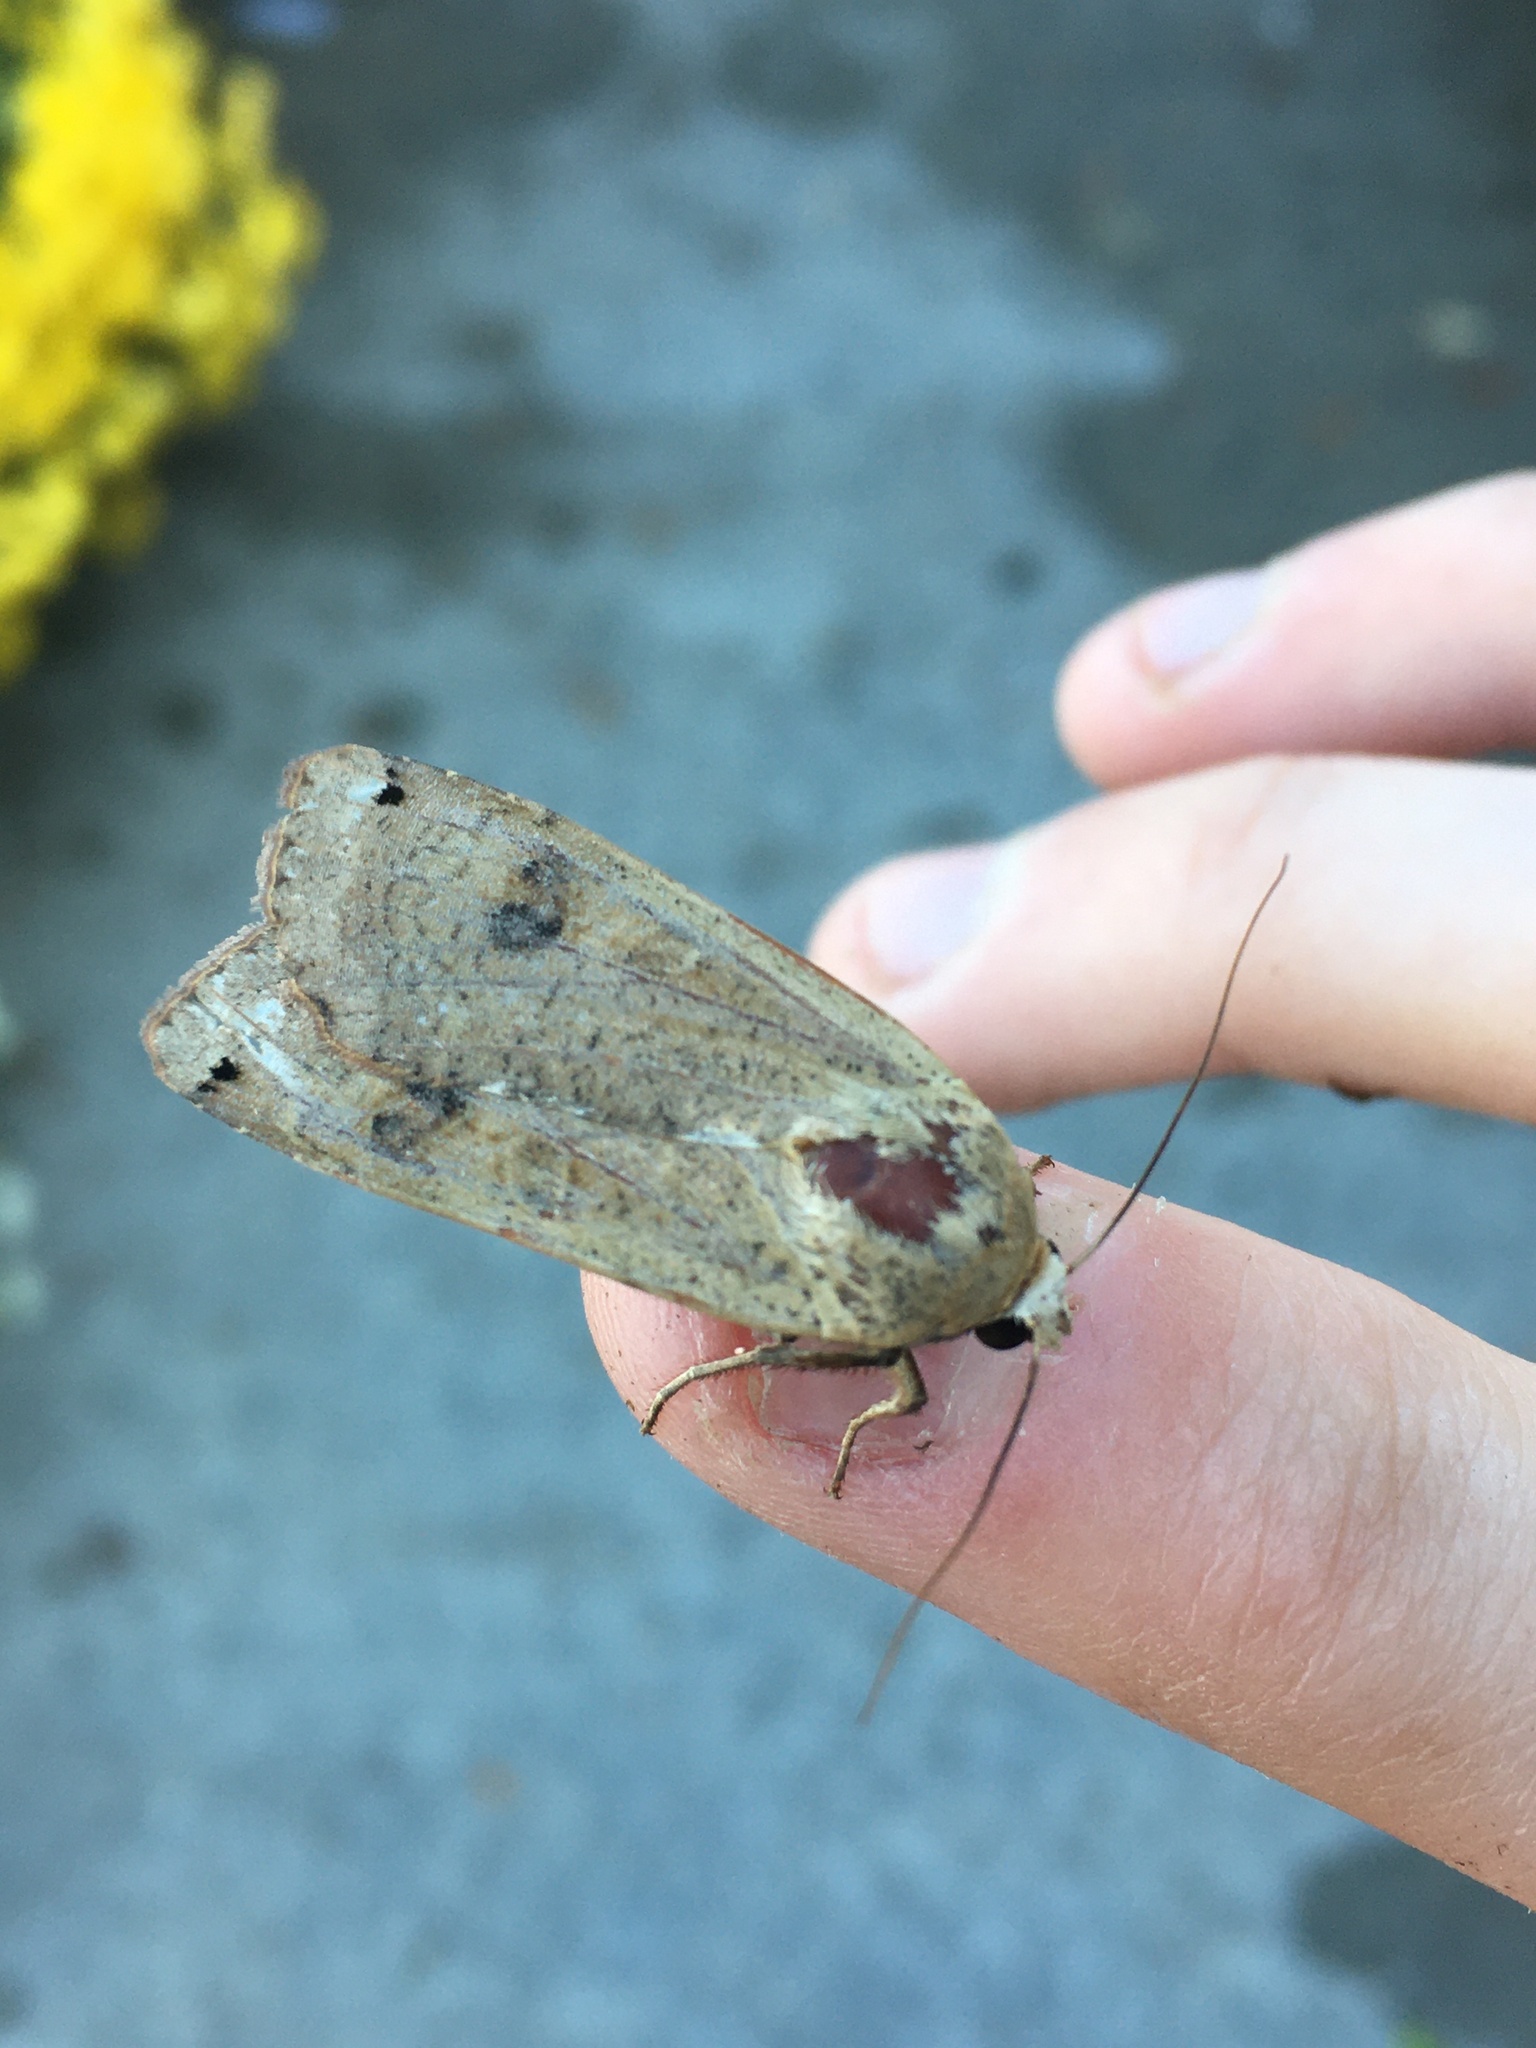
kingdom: Animalia
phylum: Arthropoda
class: Insecta
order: Lepidoptera
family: Noctuidae
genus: Noctua
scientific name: Noctua pronuba
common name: Large yellow underwing
